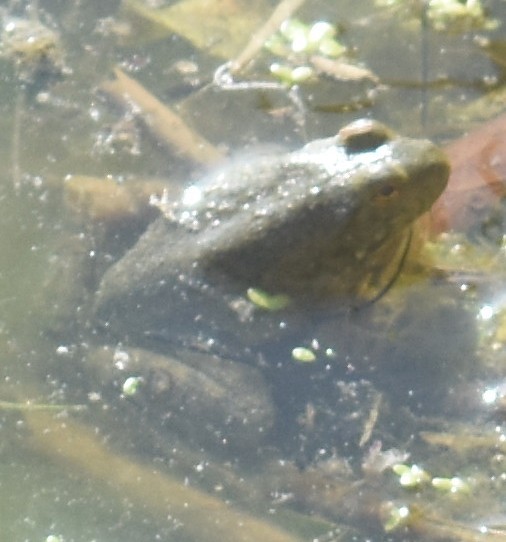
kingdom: Animalia
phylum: Chordata
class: Amphibia
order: Anura
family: Ranidae
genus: Lithobates
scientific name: Lithobates catesbeianus
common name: American bullfrog
